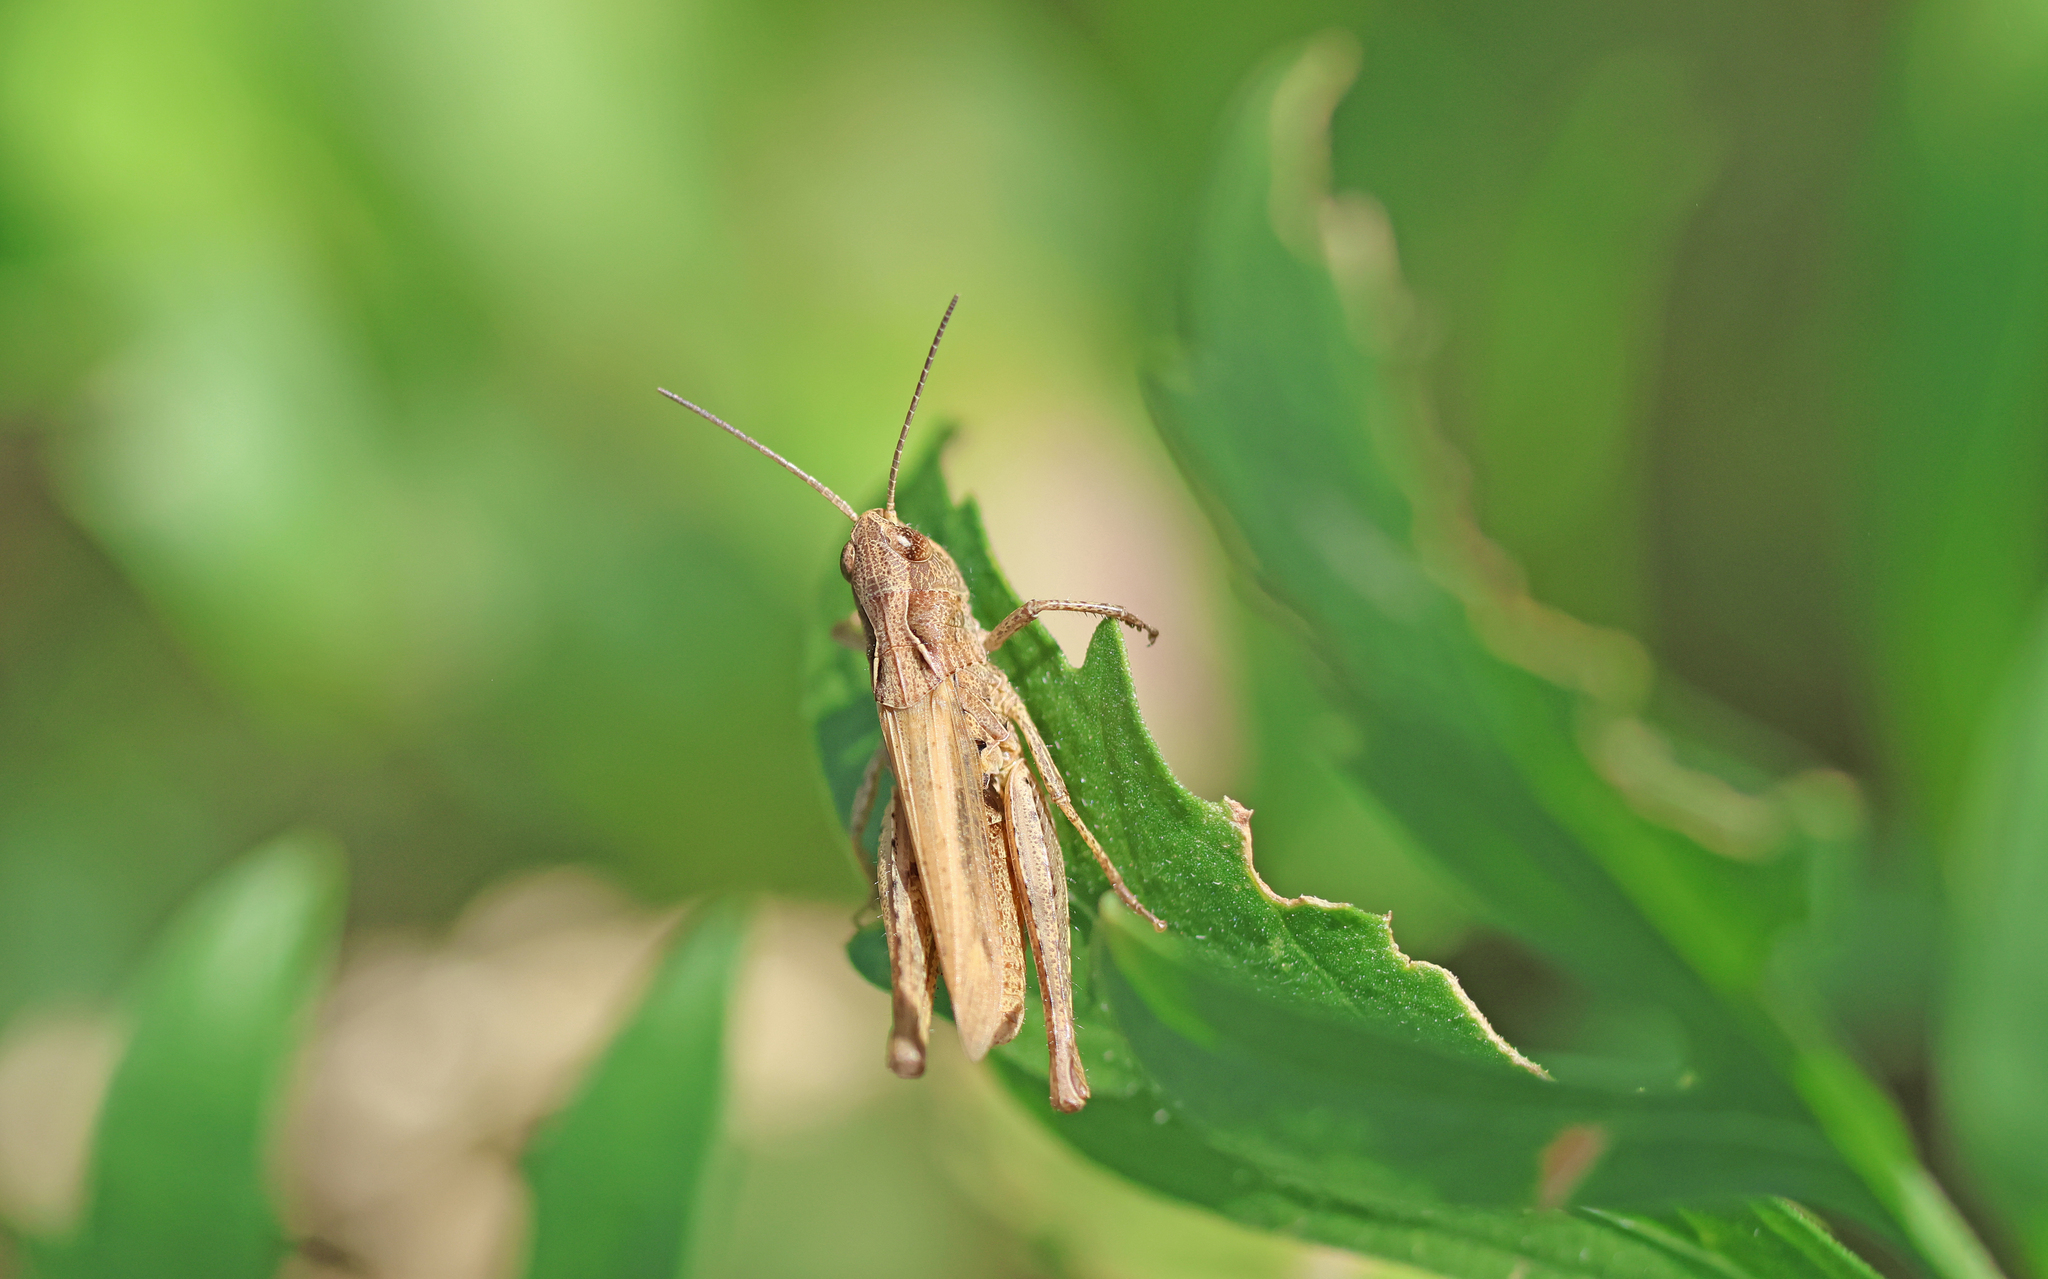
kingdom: Animalia
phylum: Arthropoda
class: Insecta
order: Orthoptera
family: Acrididae
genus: Chorthippus
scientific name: Chorthippus apricarius
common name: Upland field grasshopper
